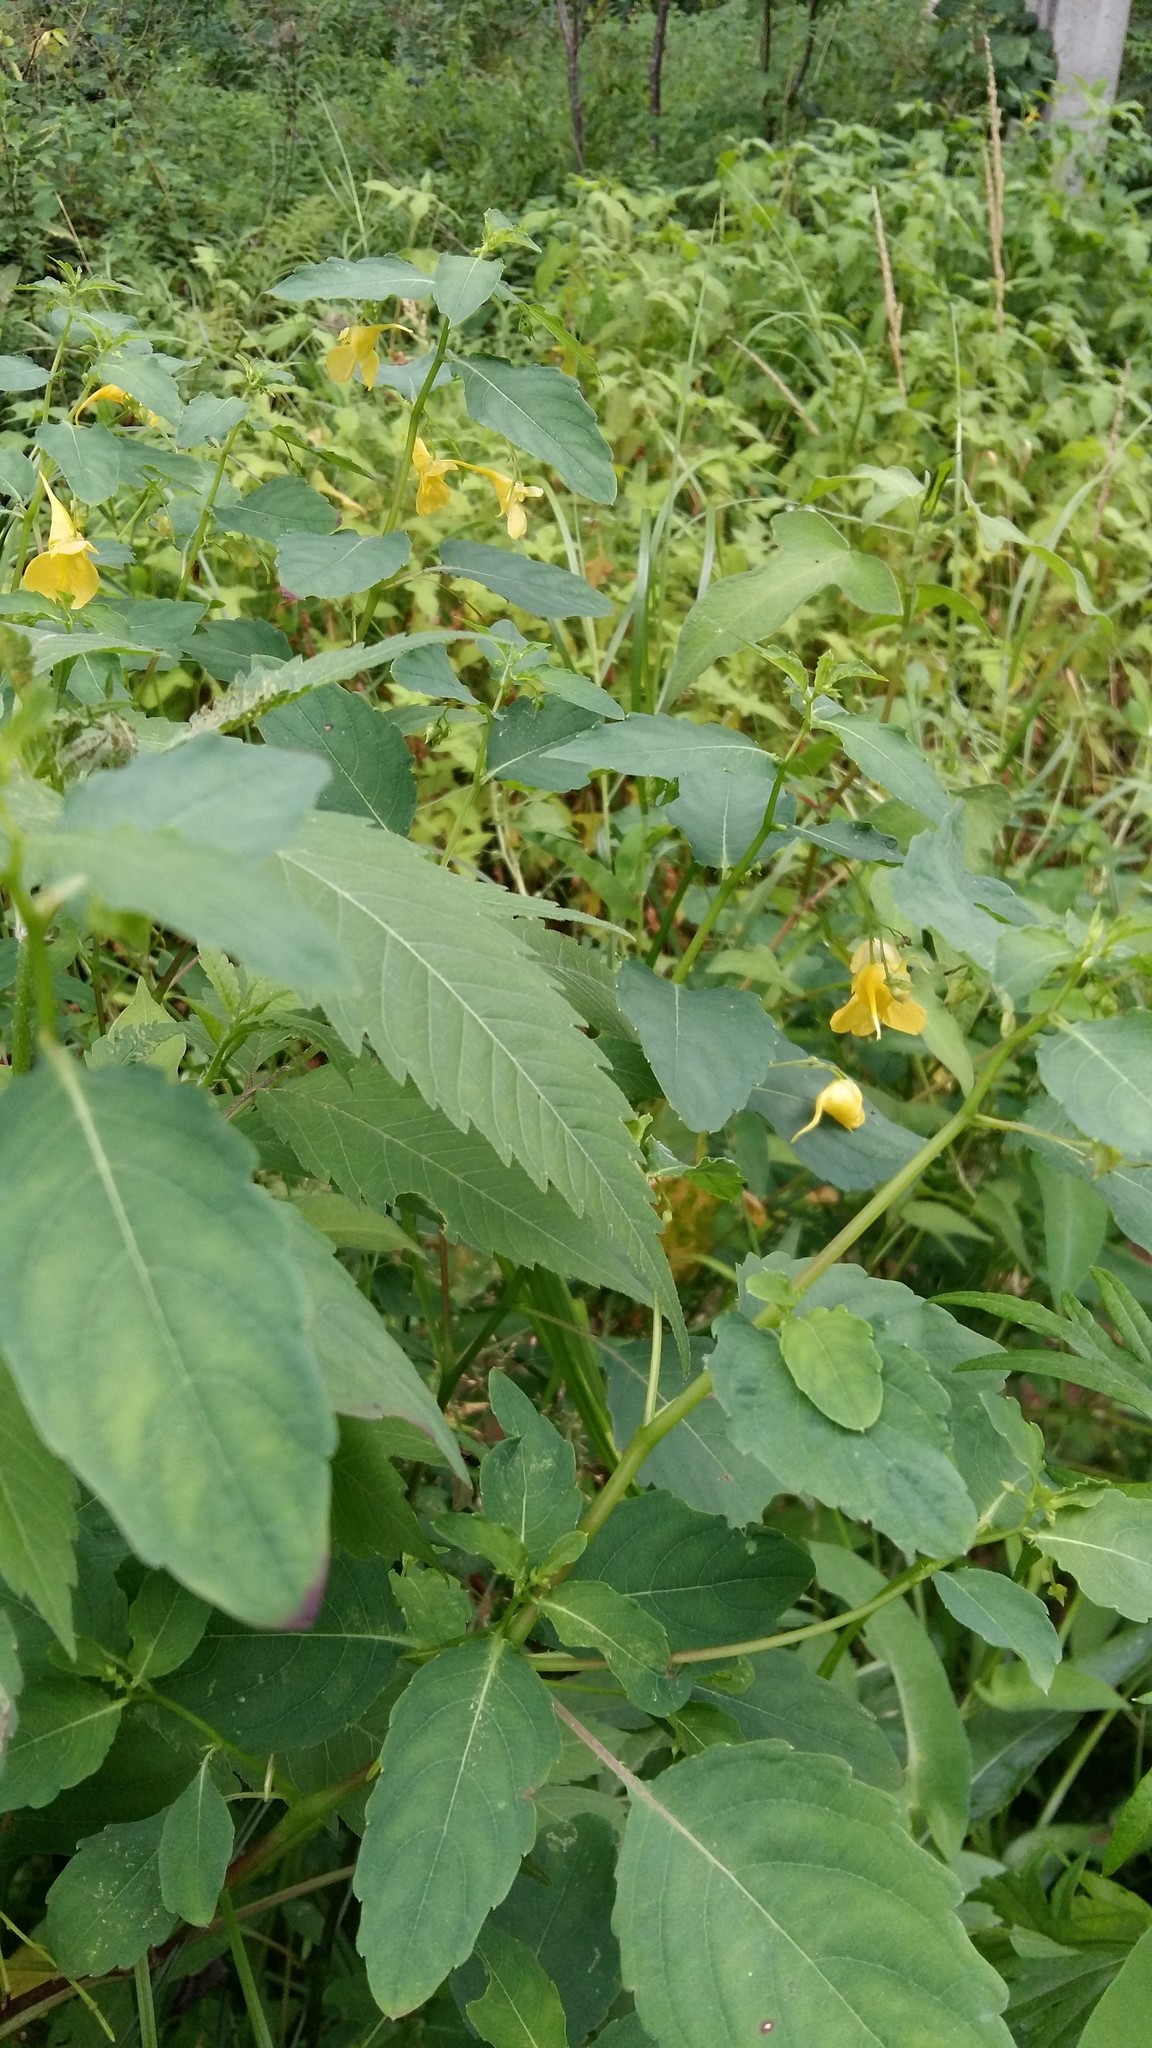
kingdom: Plantae
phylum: Tracheophyta
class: Magnoliopsida
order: Ericales
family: Balsaminaceae
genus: Impatiens
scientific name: Impatiens noli-tangere
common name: Touch-me-not balsam
